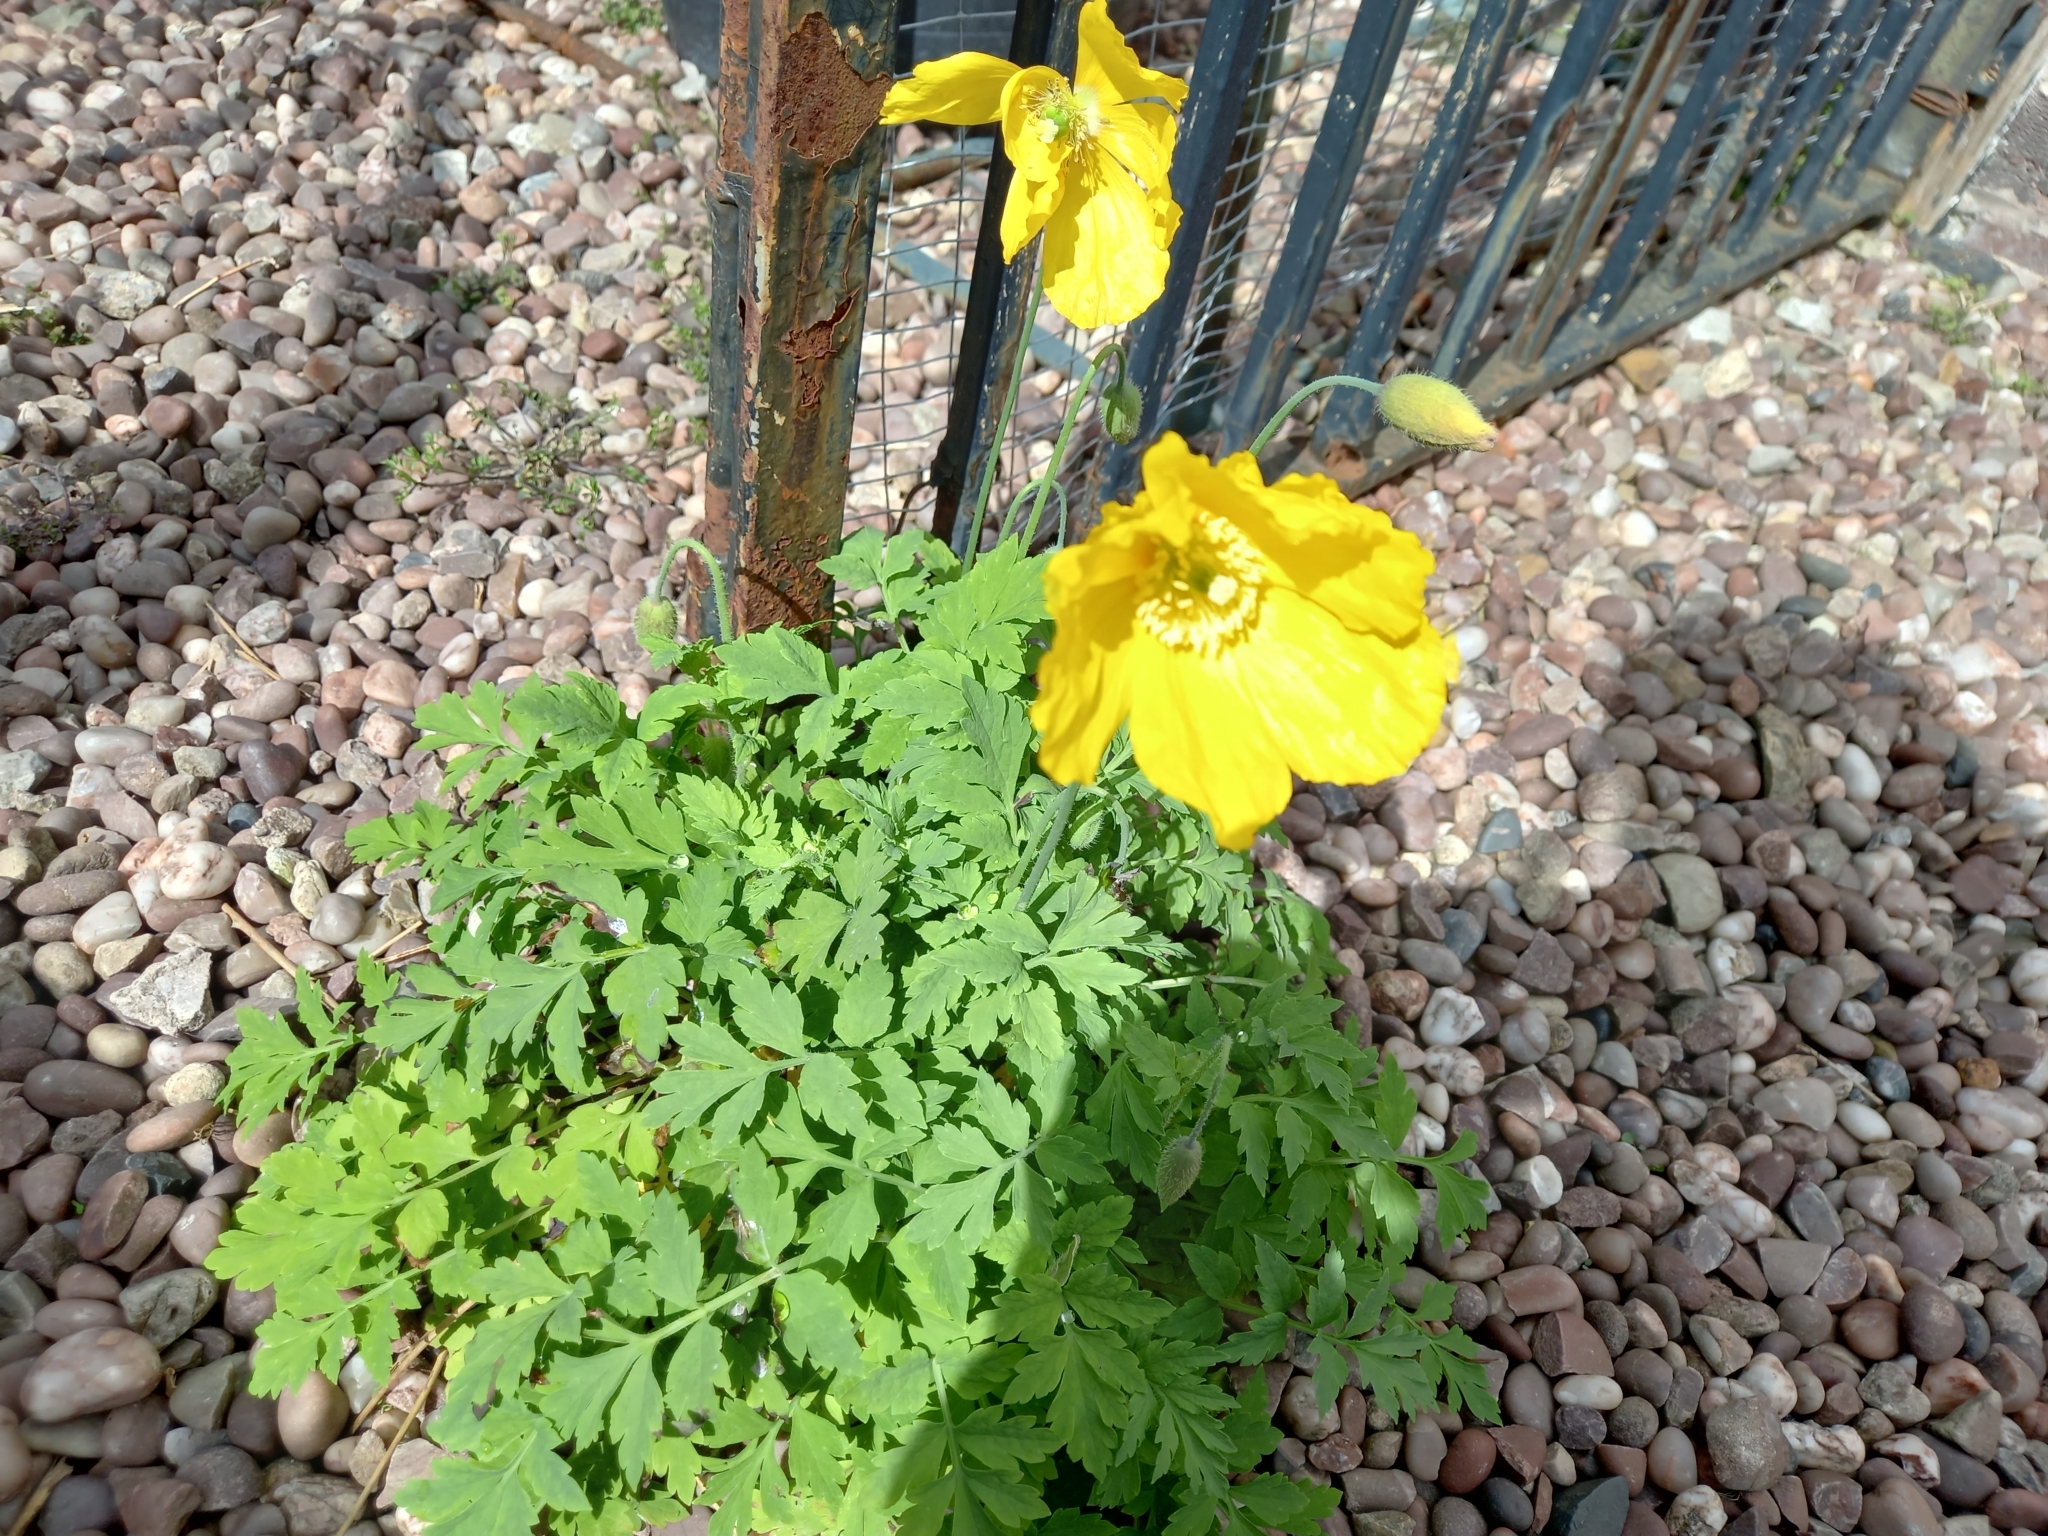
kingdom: Plantae
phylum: Tracheophyta
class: Magnoliopsida
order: Ranunculales
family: Papaveraceae
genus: Papaver
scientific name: Papaver cambricum
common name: Poppy
